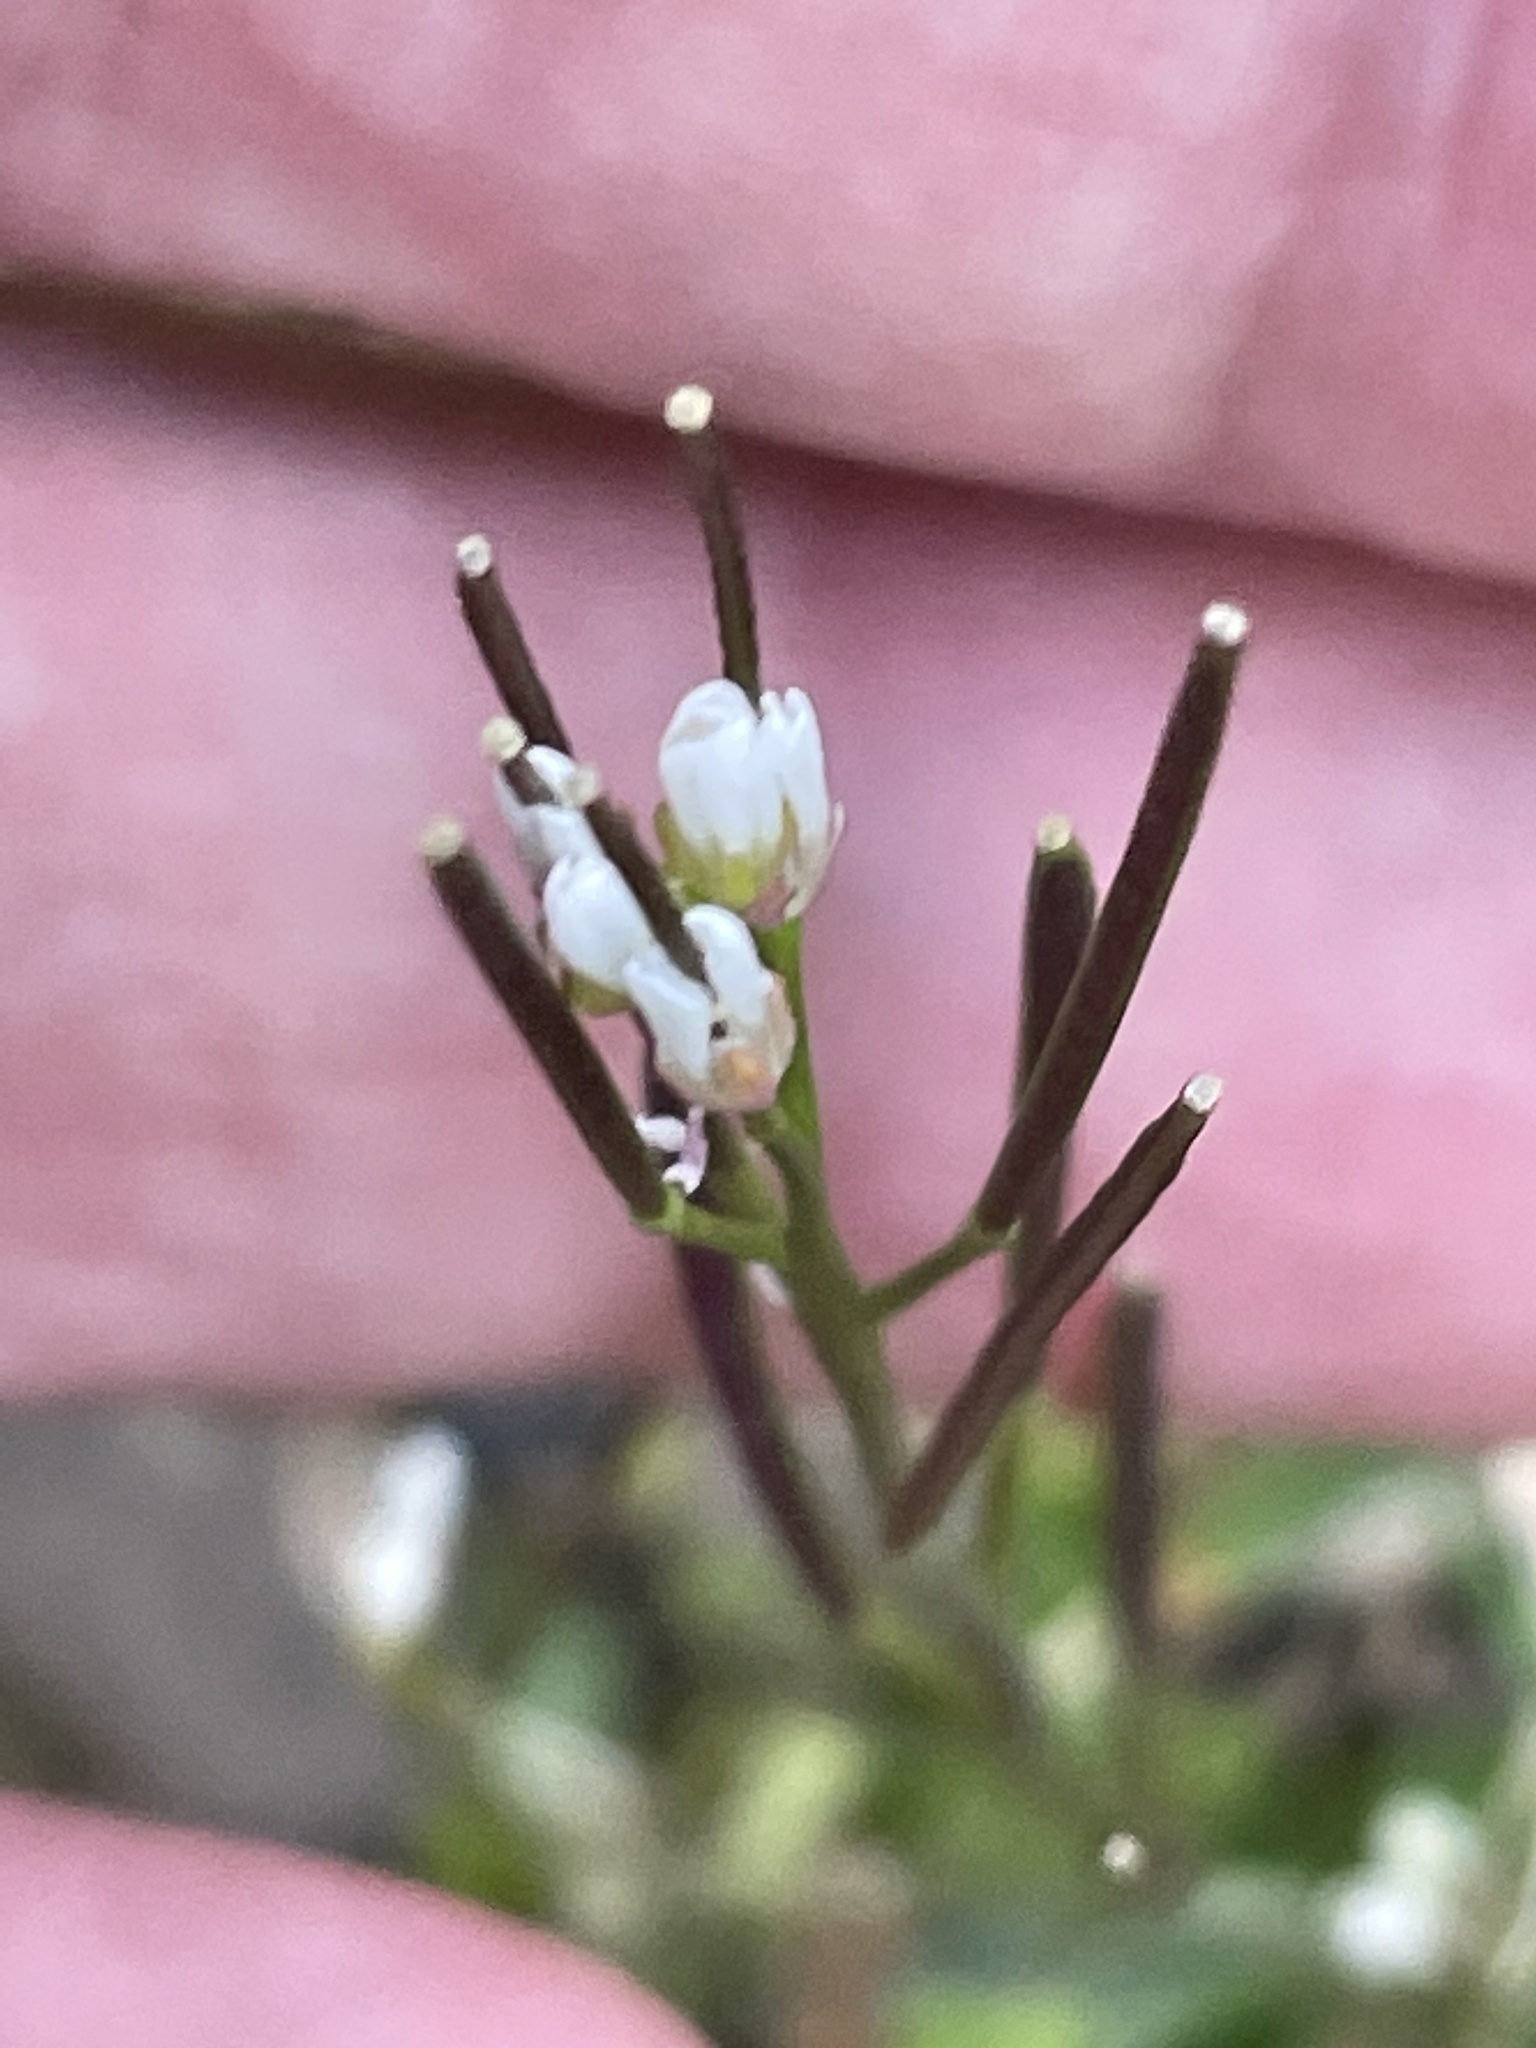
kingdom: Plantae
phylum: Tracheophyta
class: Magnoliopsida
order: Brassicales
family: Brassicaceae
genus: Cardamine
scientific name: Cardamine hirsuta
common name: Hairy bittercress
